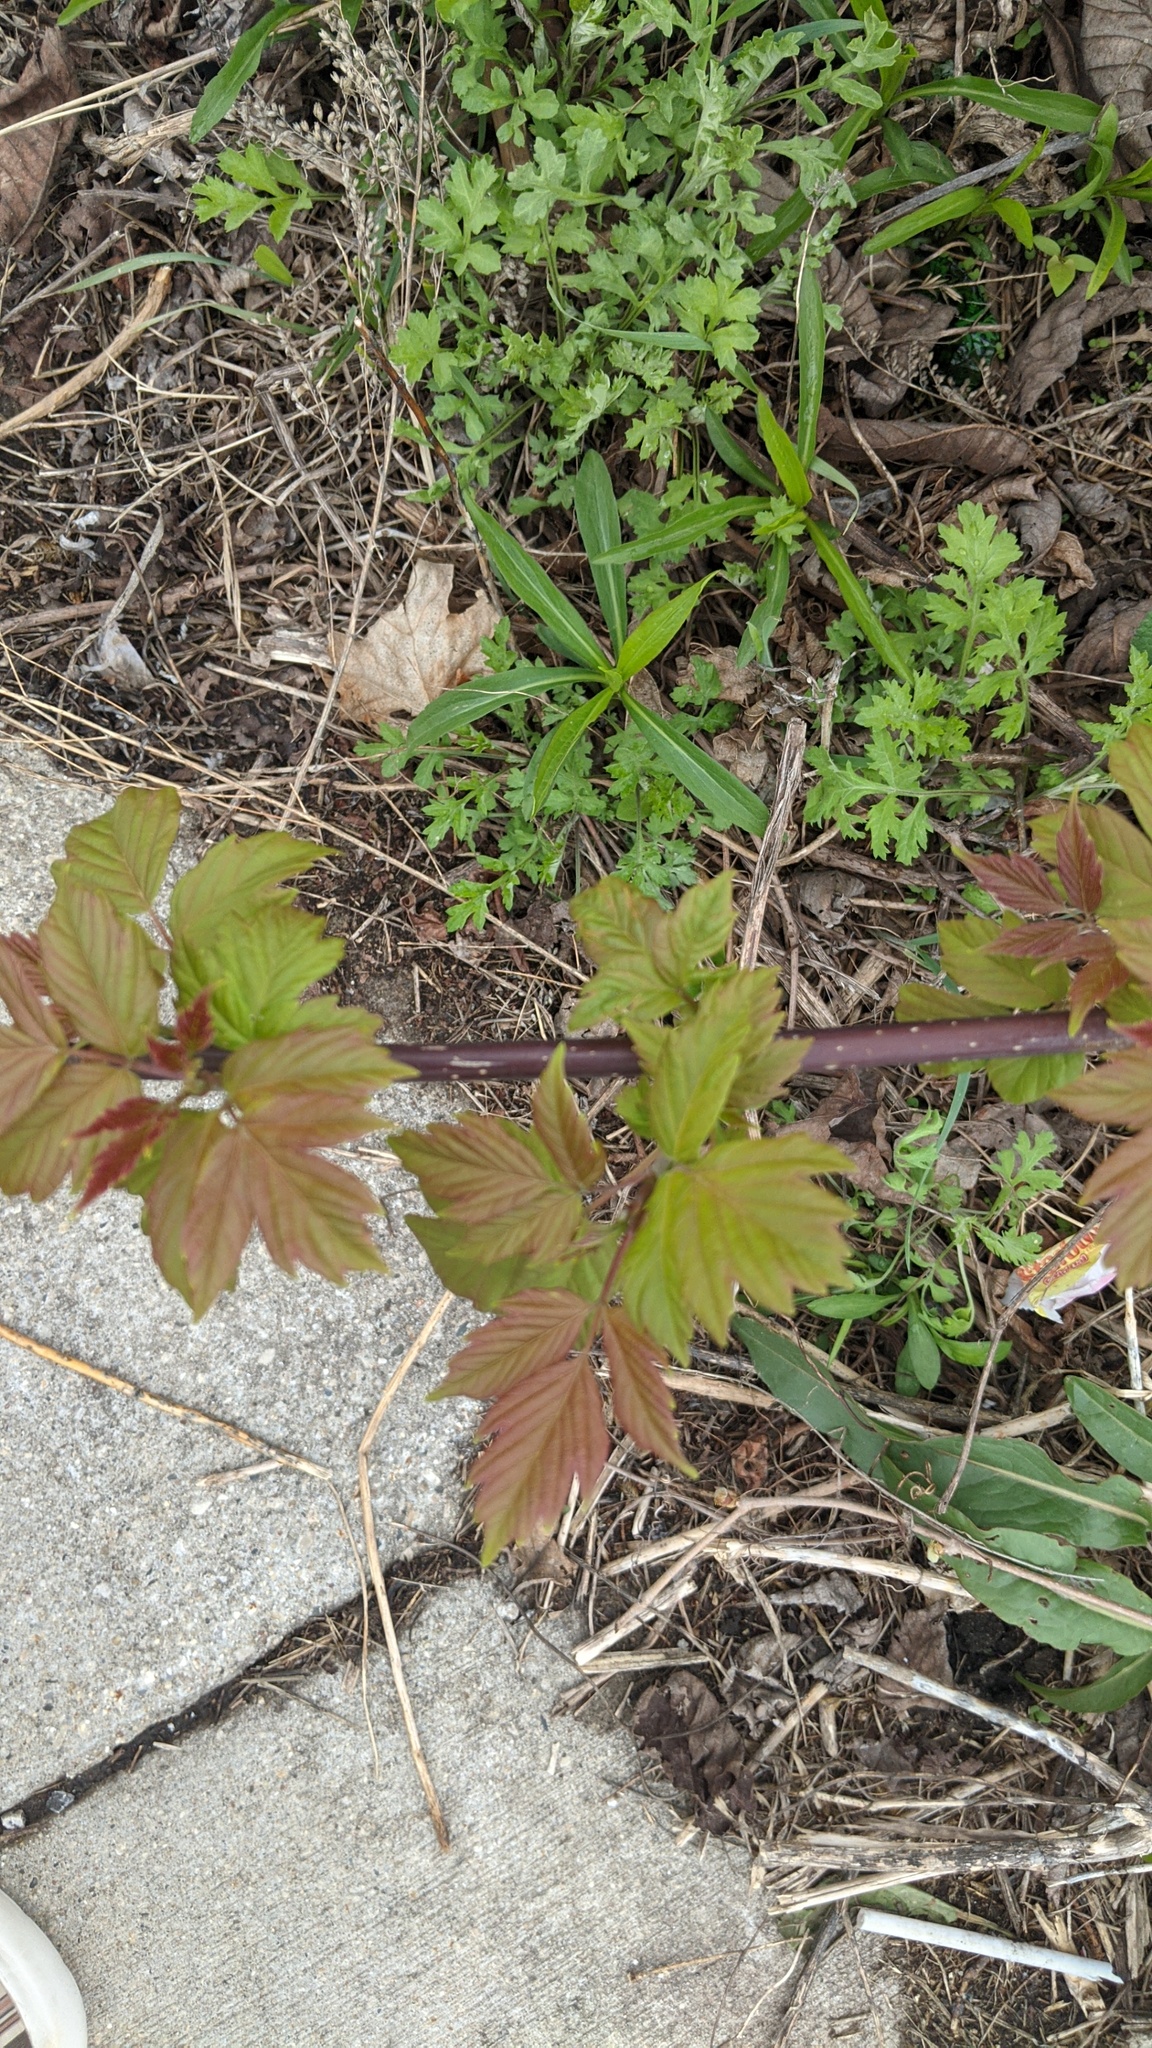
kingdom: Plantae
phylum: Tracheophyta
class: Magnoliopsida
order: Sapindales
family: Sapindaceae
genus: Acer
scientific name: Acer negundo
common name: Ashleaf maple
